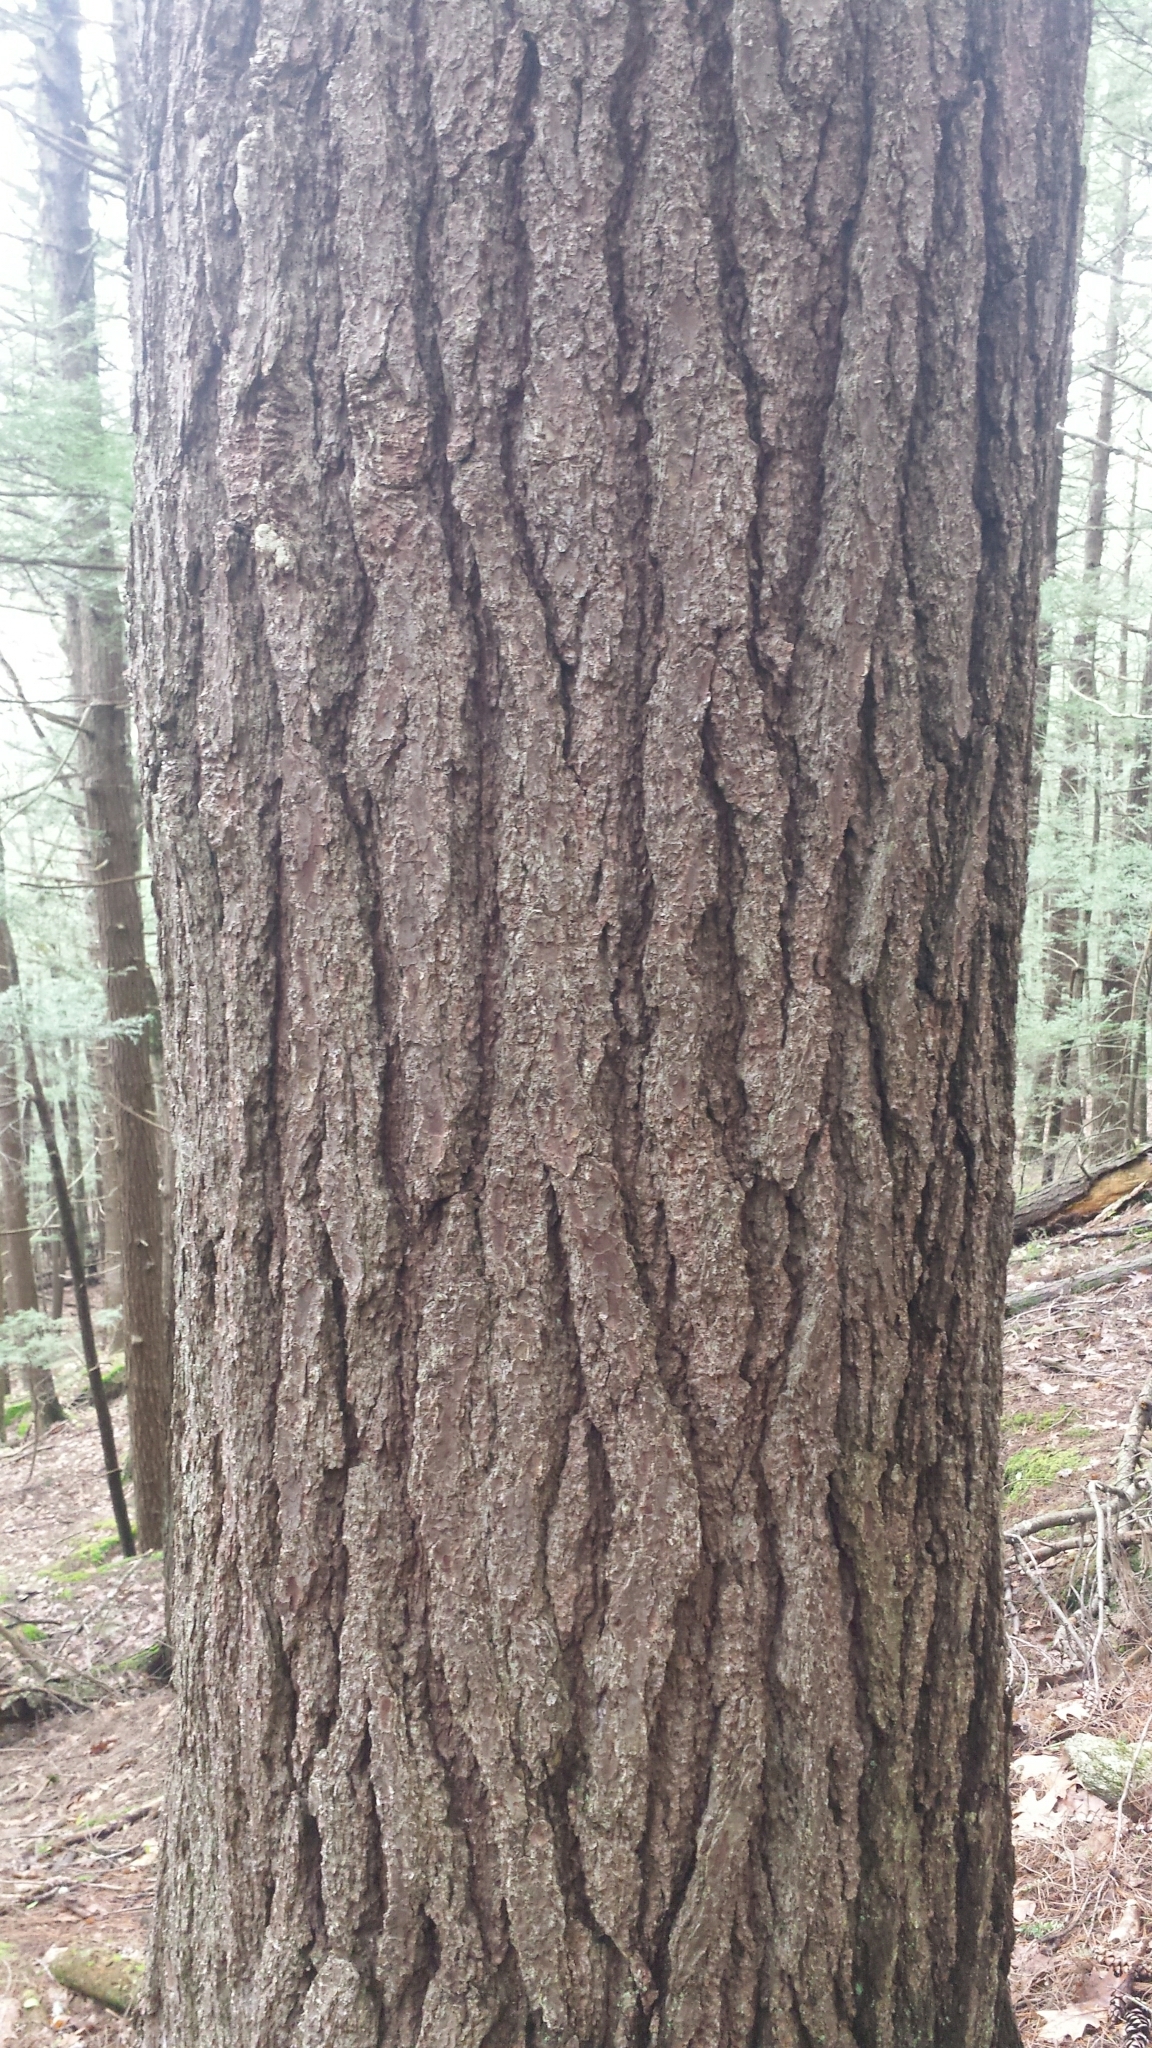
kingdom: Plantae
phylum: Tracheophyta
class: Pinopsida
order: Pinales
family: Pinaceae
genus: Pinus
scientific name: Pinus strobus
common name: Weymouth pine
